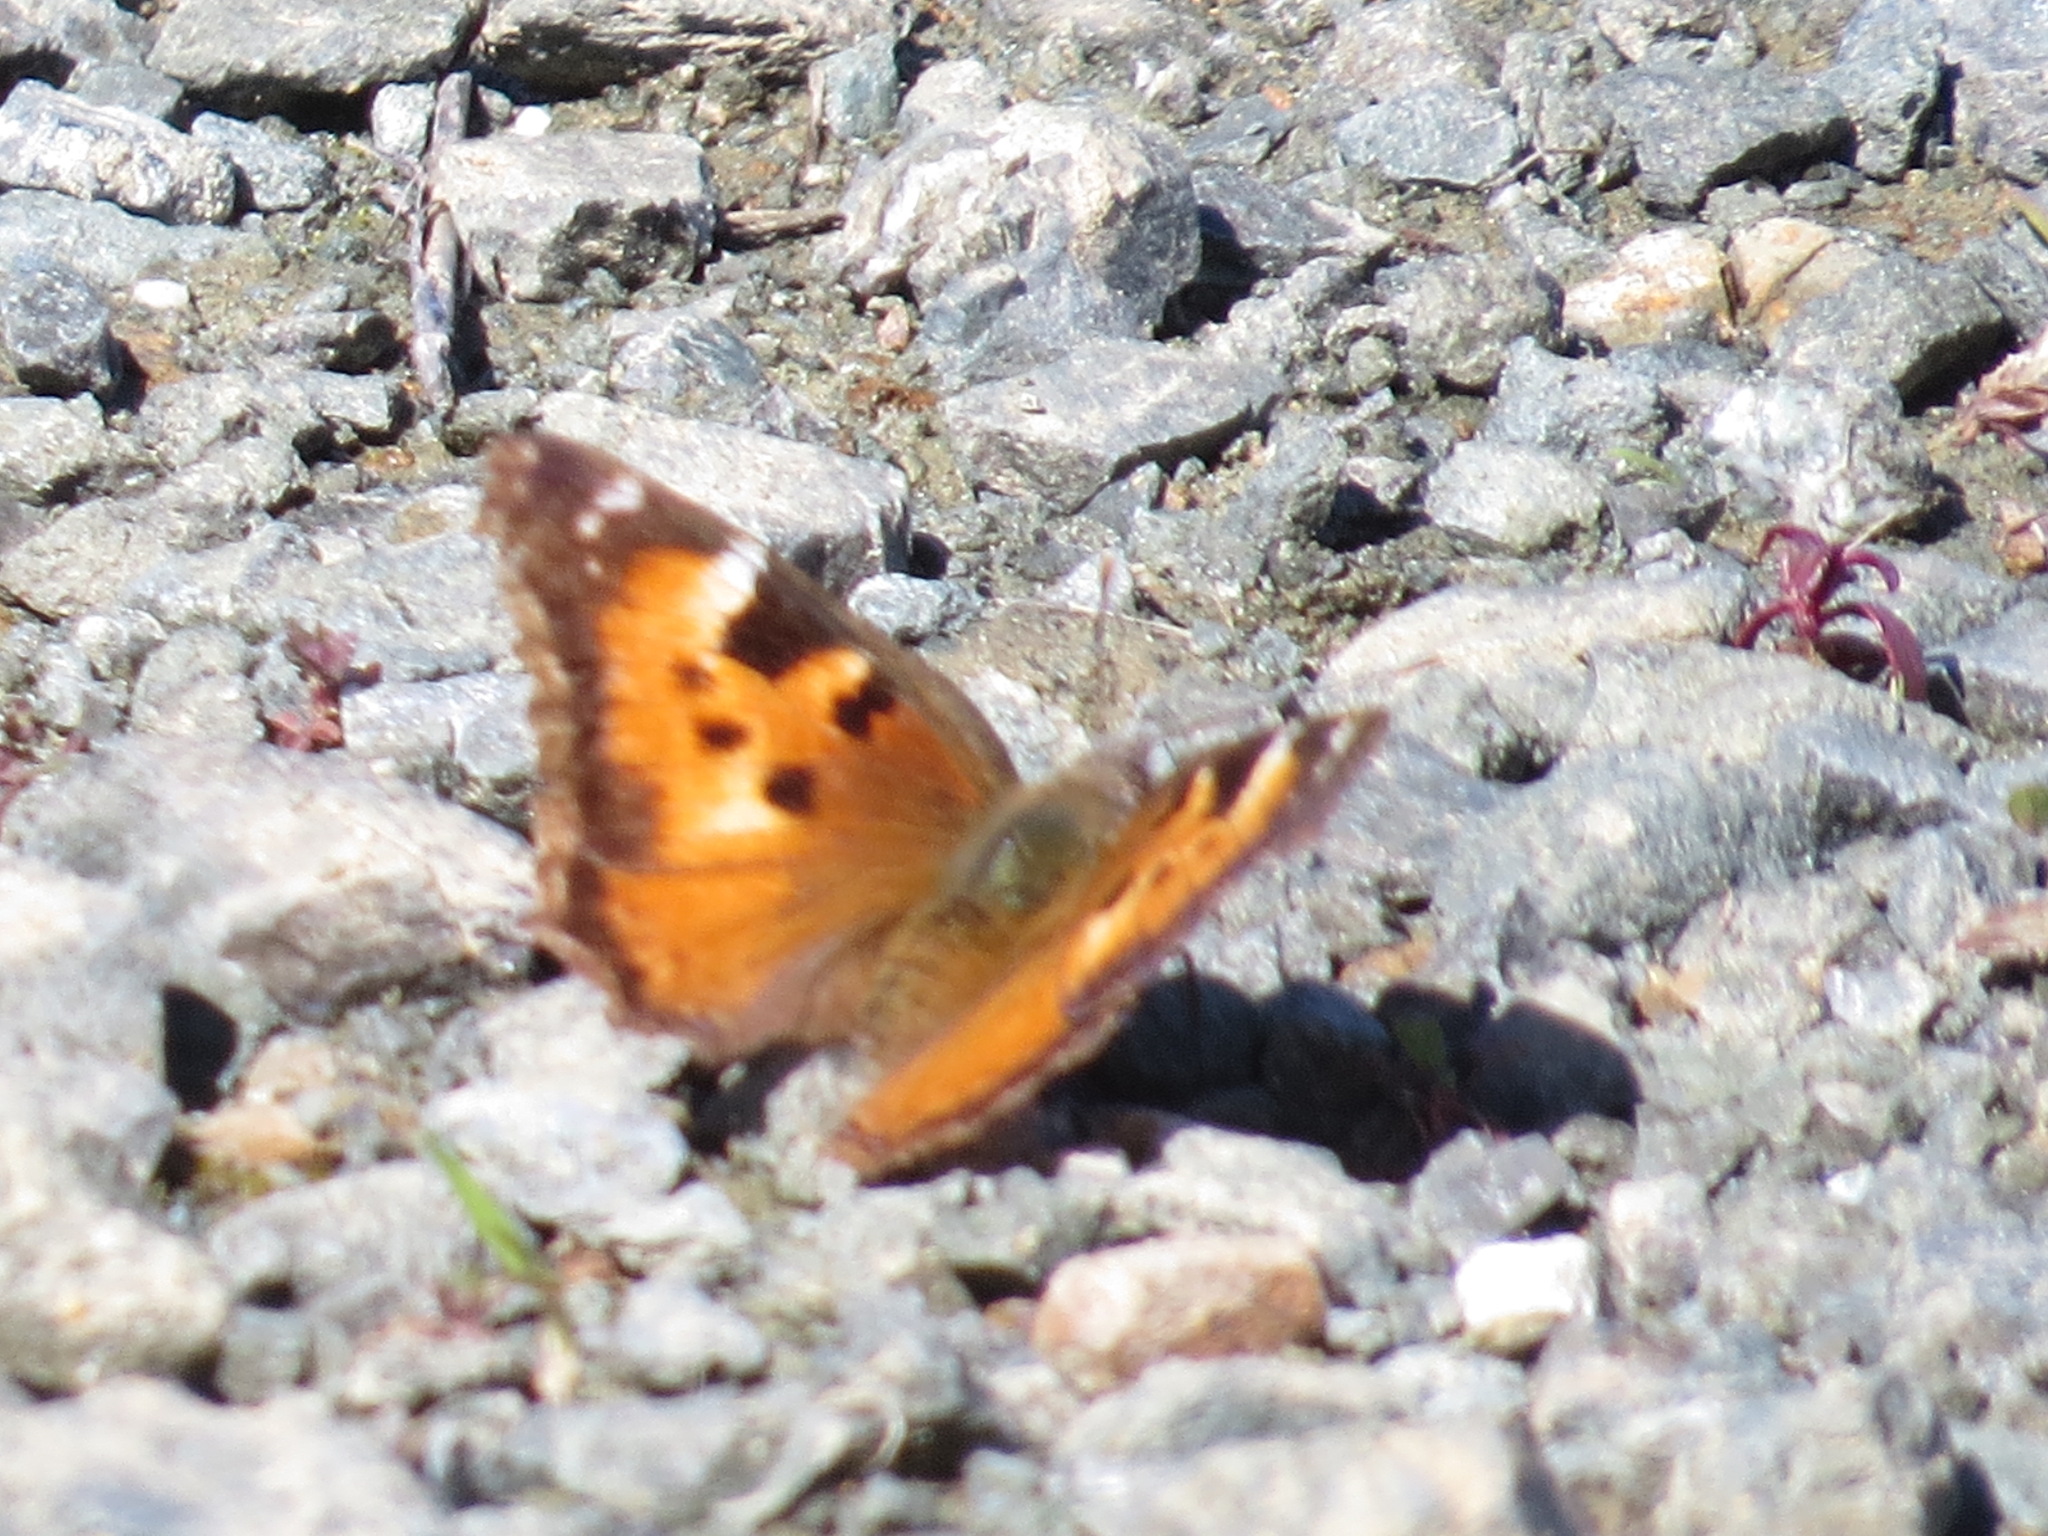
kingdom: Animalia
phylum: Arthropoda
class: Insecta
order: Lepidoptera
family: Nymphalidae
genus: Nymphalis
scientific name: Nymphalis californica
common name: California tortoiseshell
